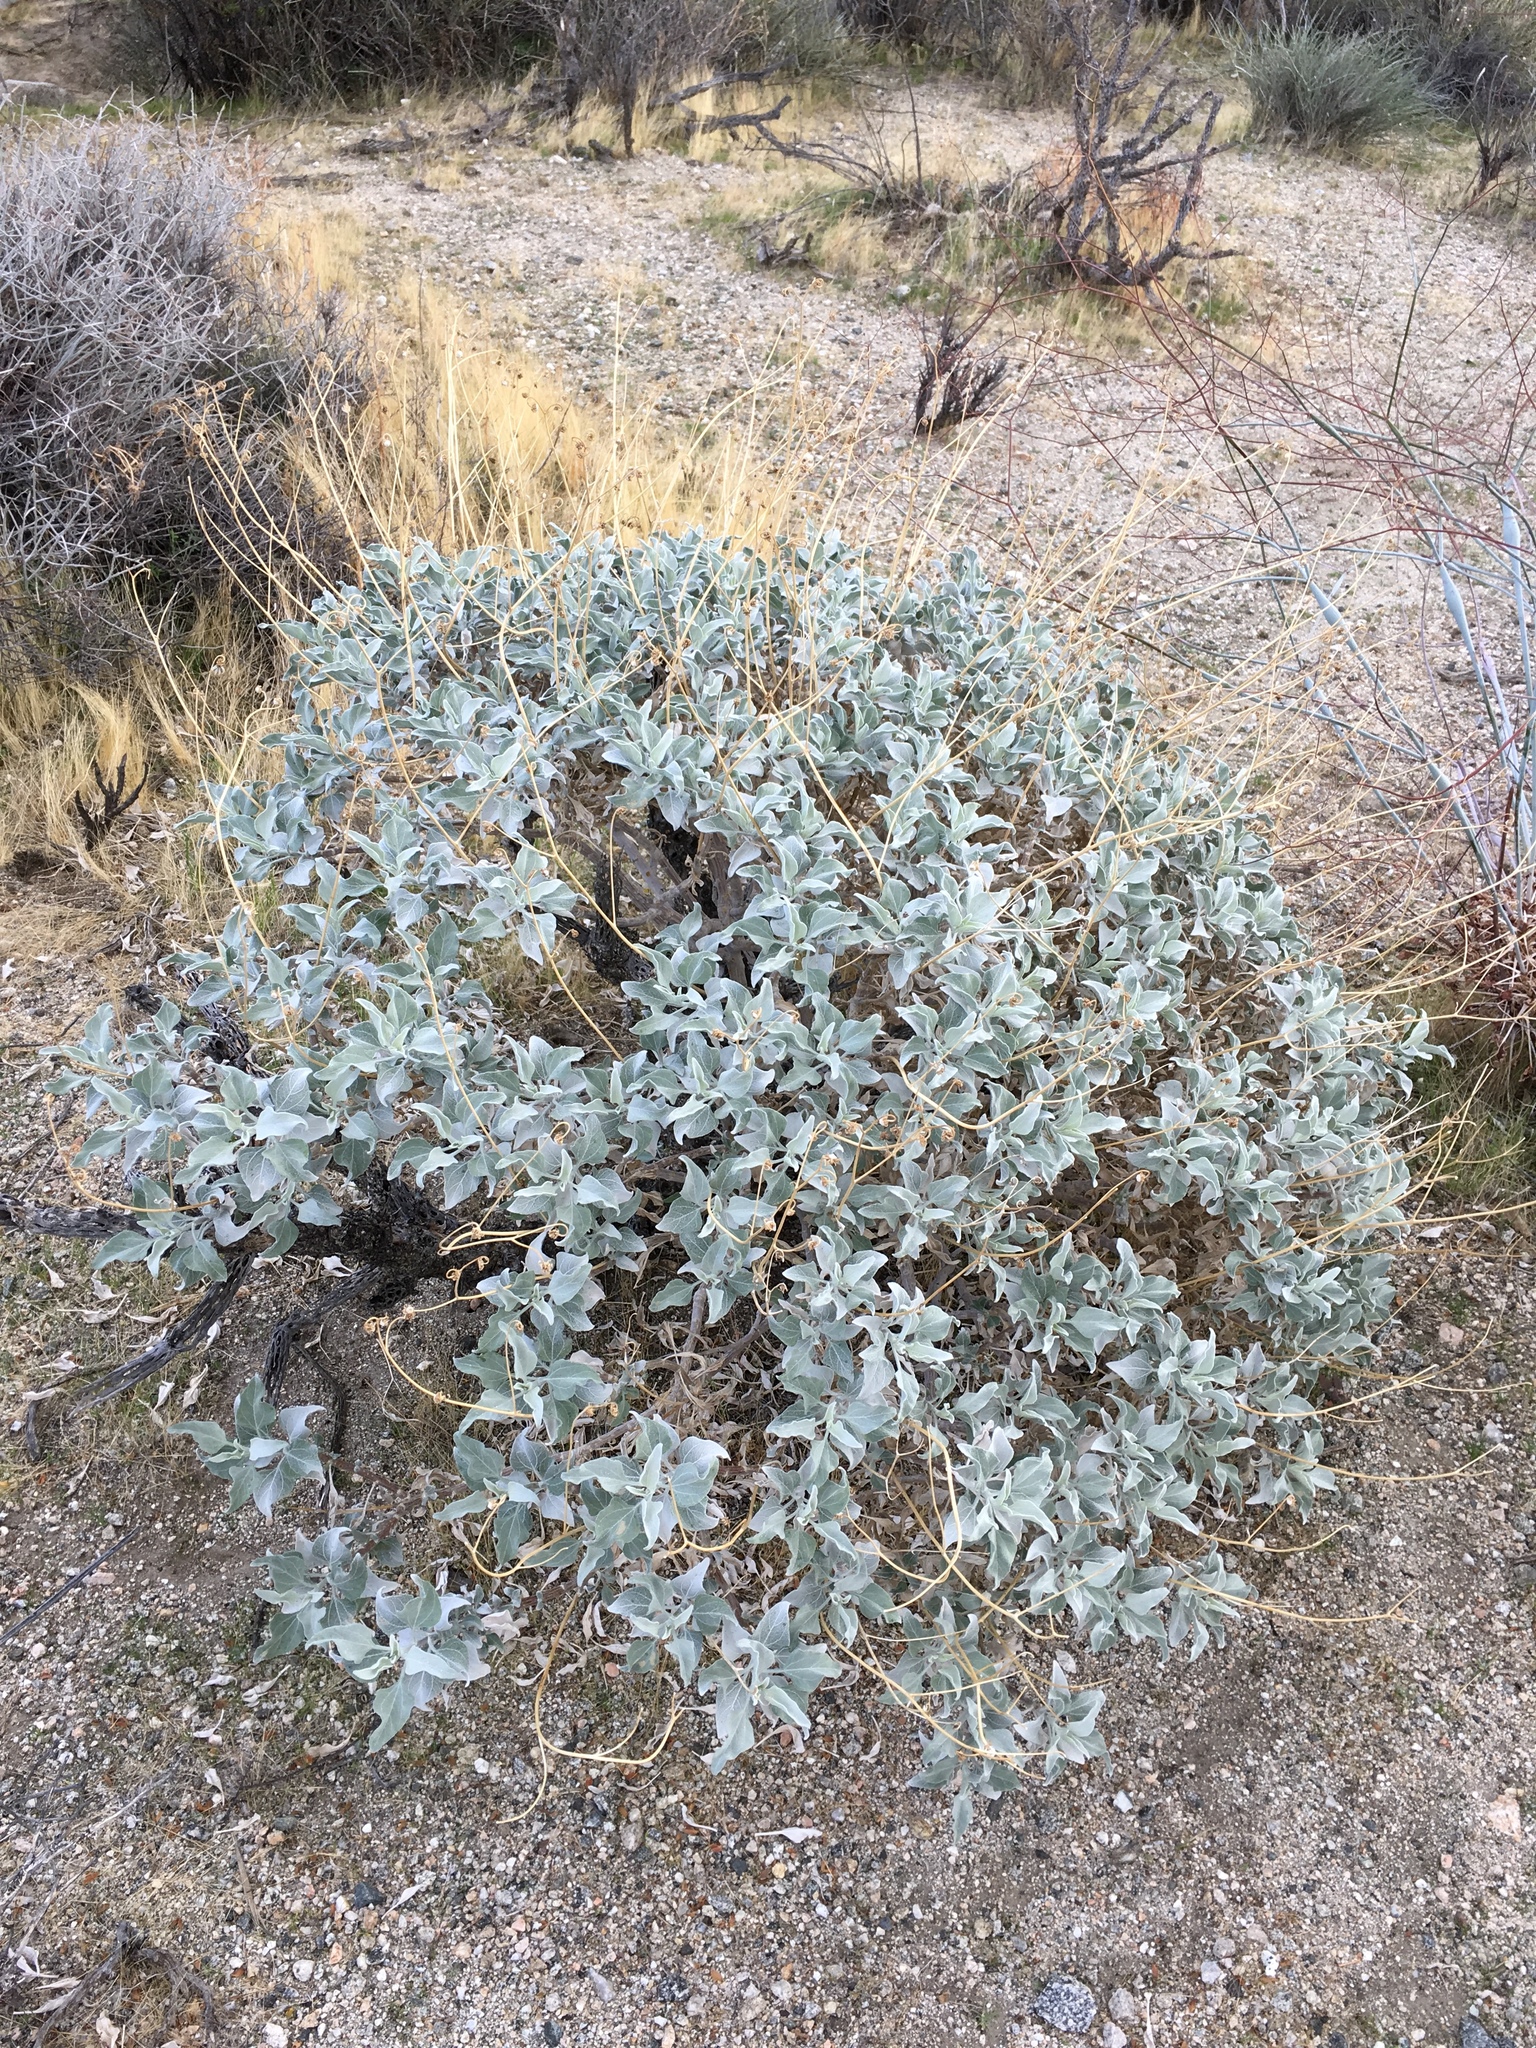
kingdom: Plantae
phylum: Tracheophyta
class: Magnoliopsida
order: Asterales
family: Asteraceae
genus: Encelia
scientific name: Encelia farinosa
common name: Brittlebush
